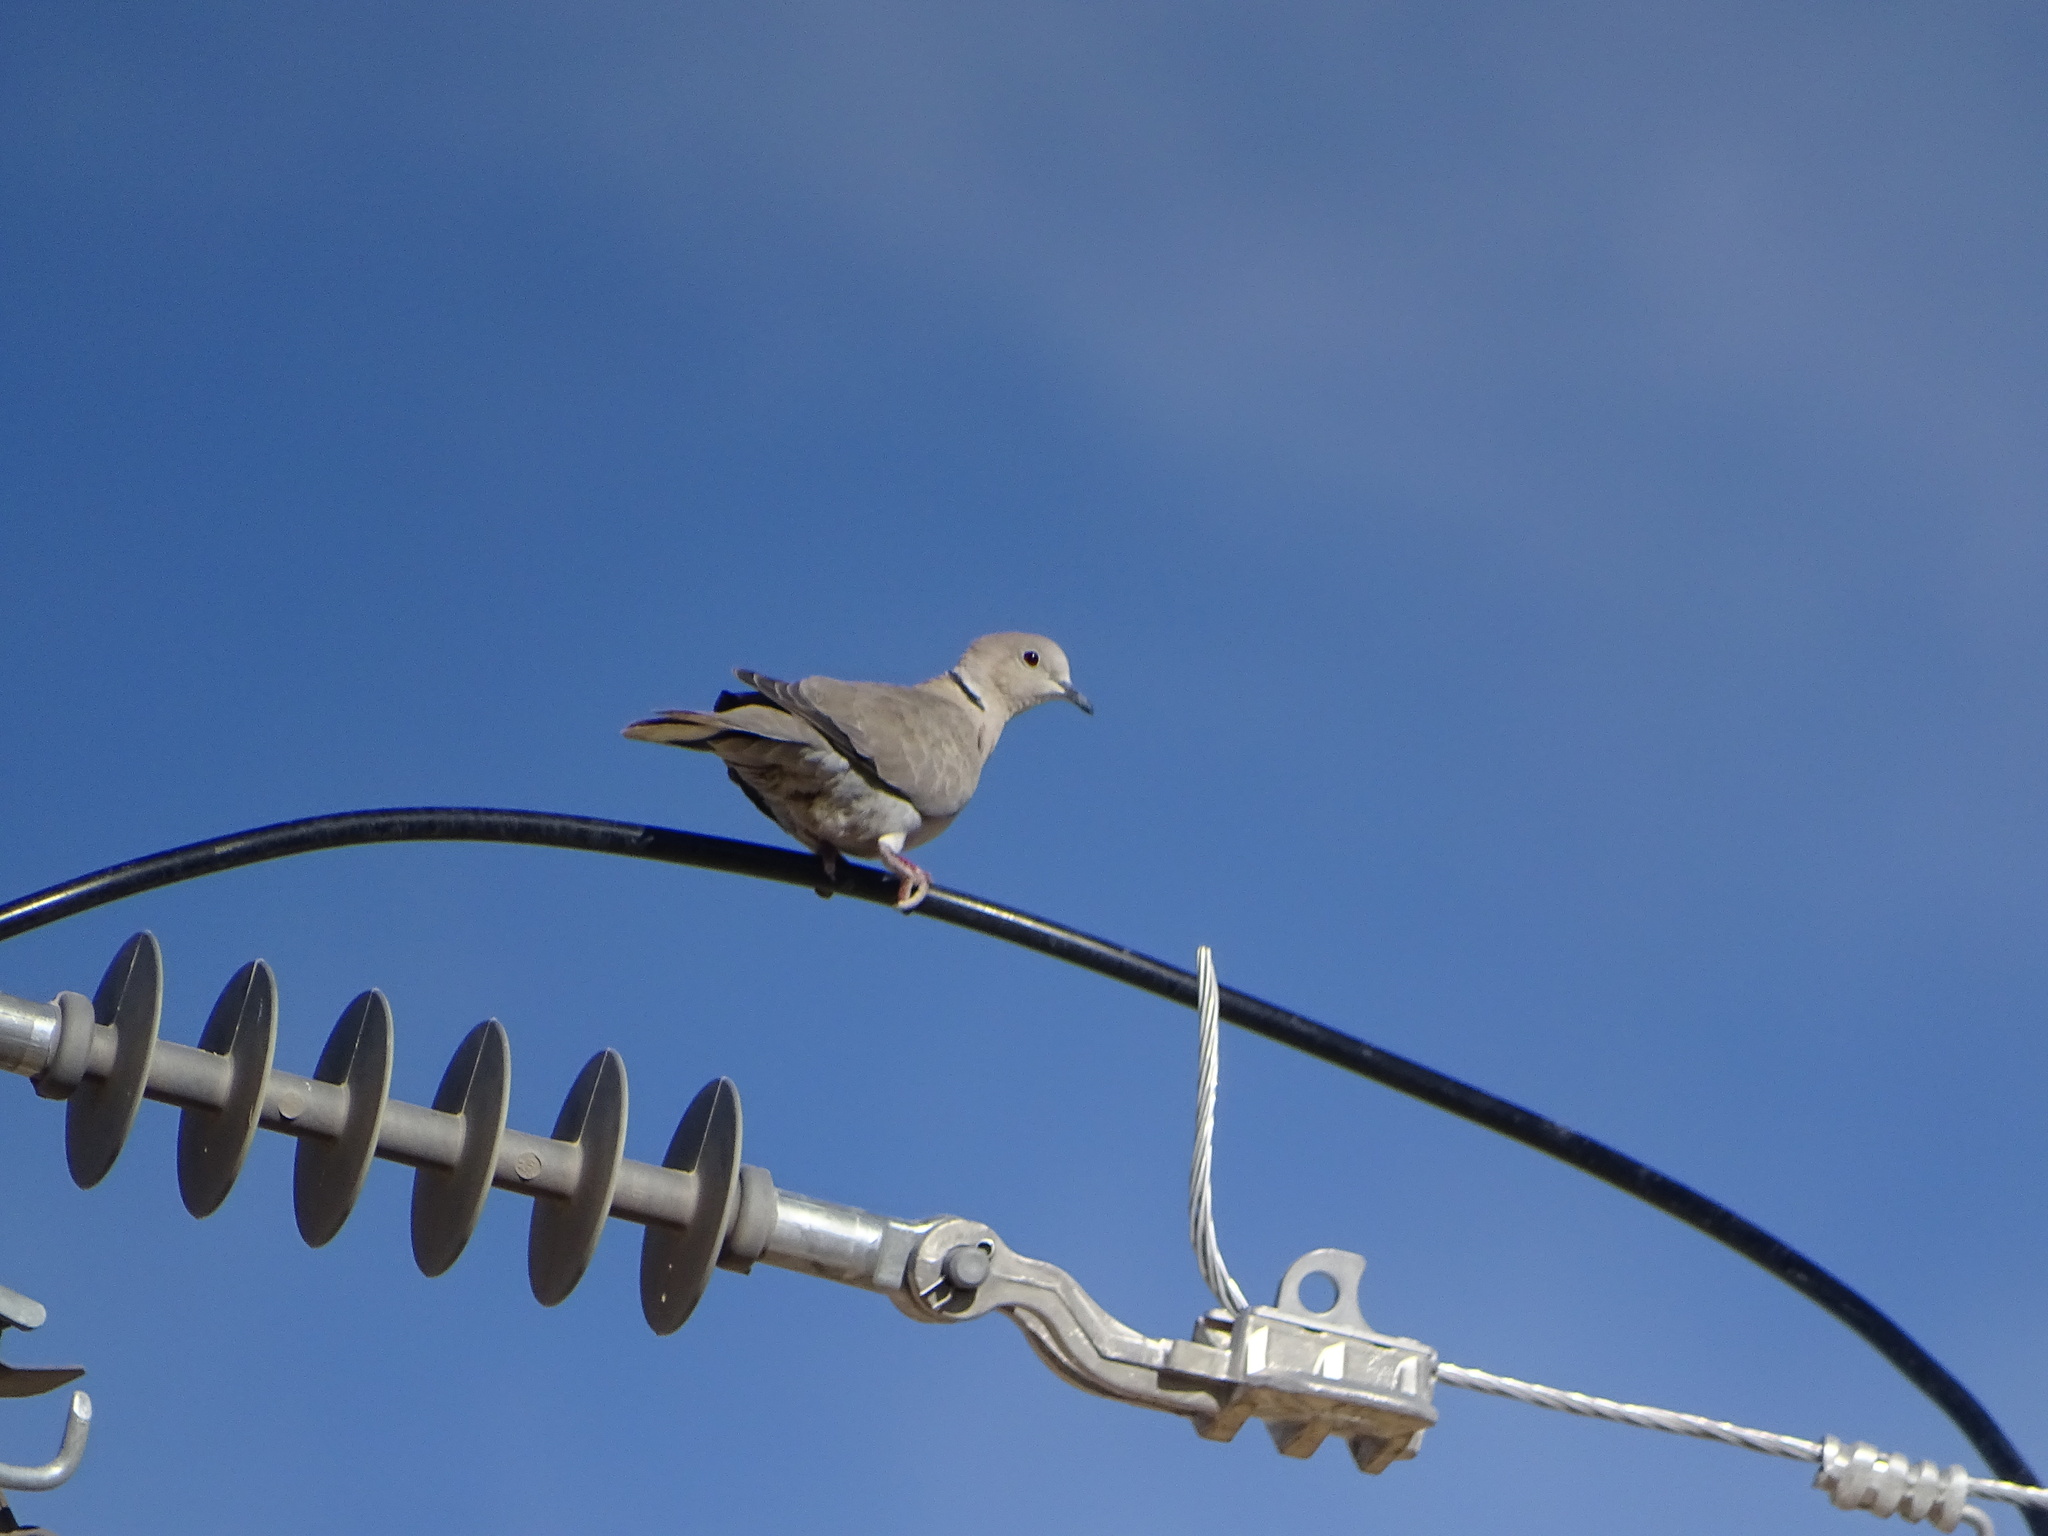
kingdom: Animalia
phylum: Chordata
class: Aves
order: Columbiformes
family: Columbidae
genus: Streptopelia
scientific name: Streptopelia decaocto
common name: Eurasian collared dove
